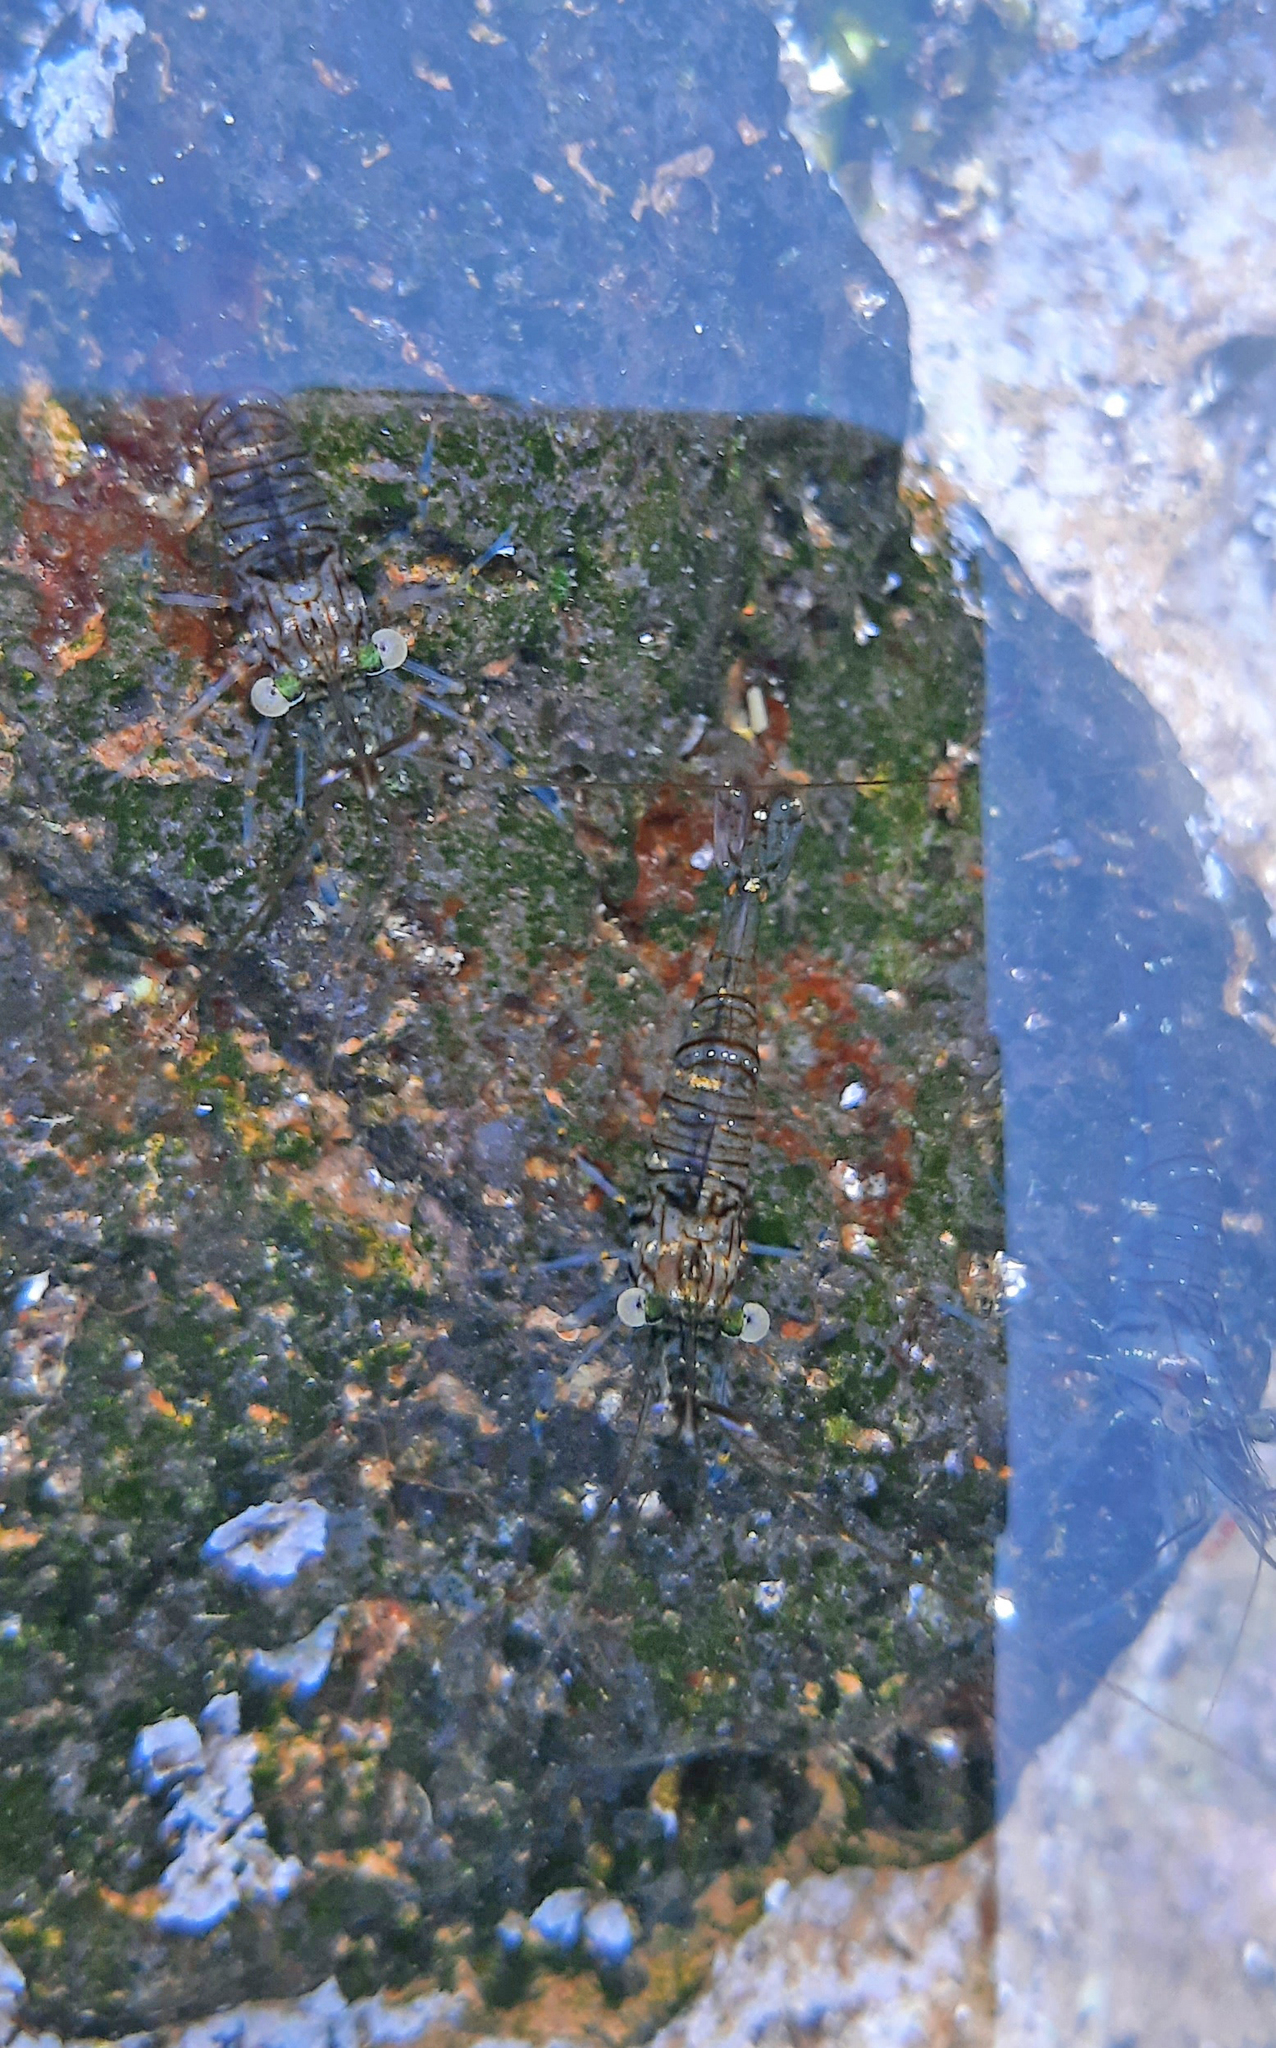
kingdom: Animalia
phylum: Arthropoda
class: Malacostraca
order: Decapoda
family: Palaemonidae
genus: Palaemon
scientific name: Palaemon elegans
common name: Grass prawm
